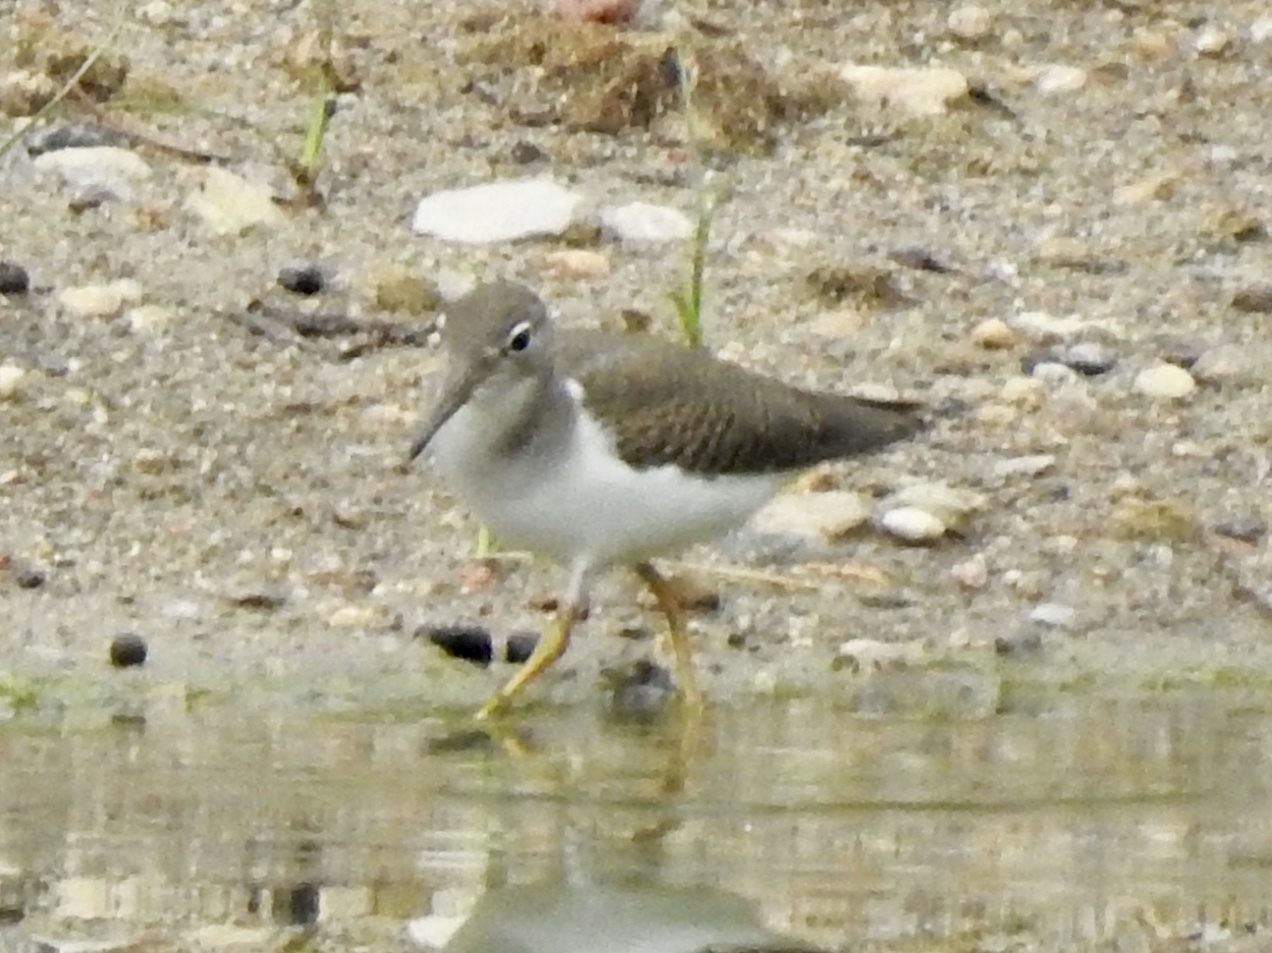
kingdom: Animalia
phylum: Chordata
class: Aves
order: Charadriiformes
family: Scolopacidae
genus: Actitis
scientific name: Actitis macularius
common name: Spotted sandpiper
